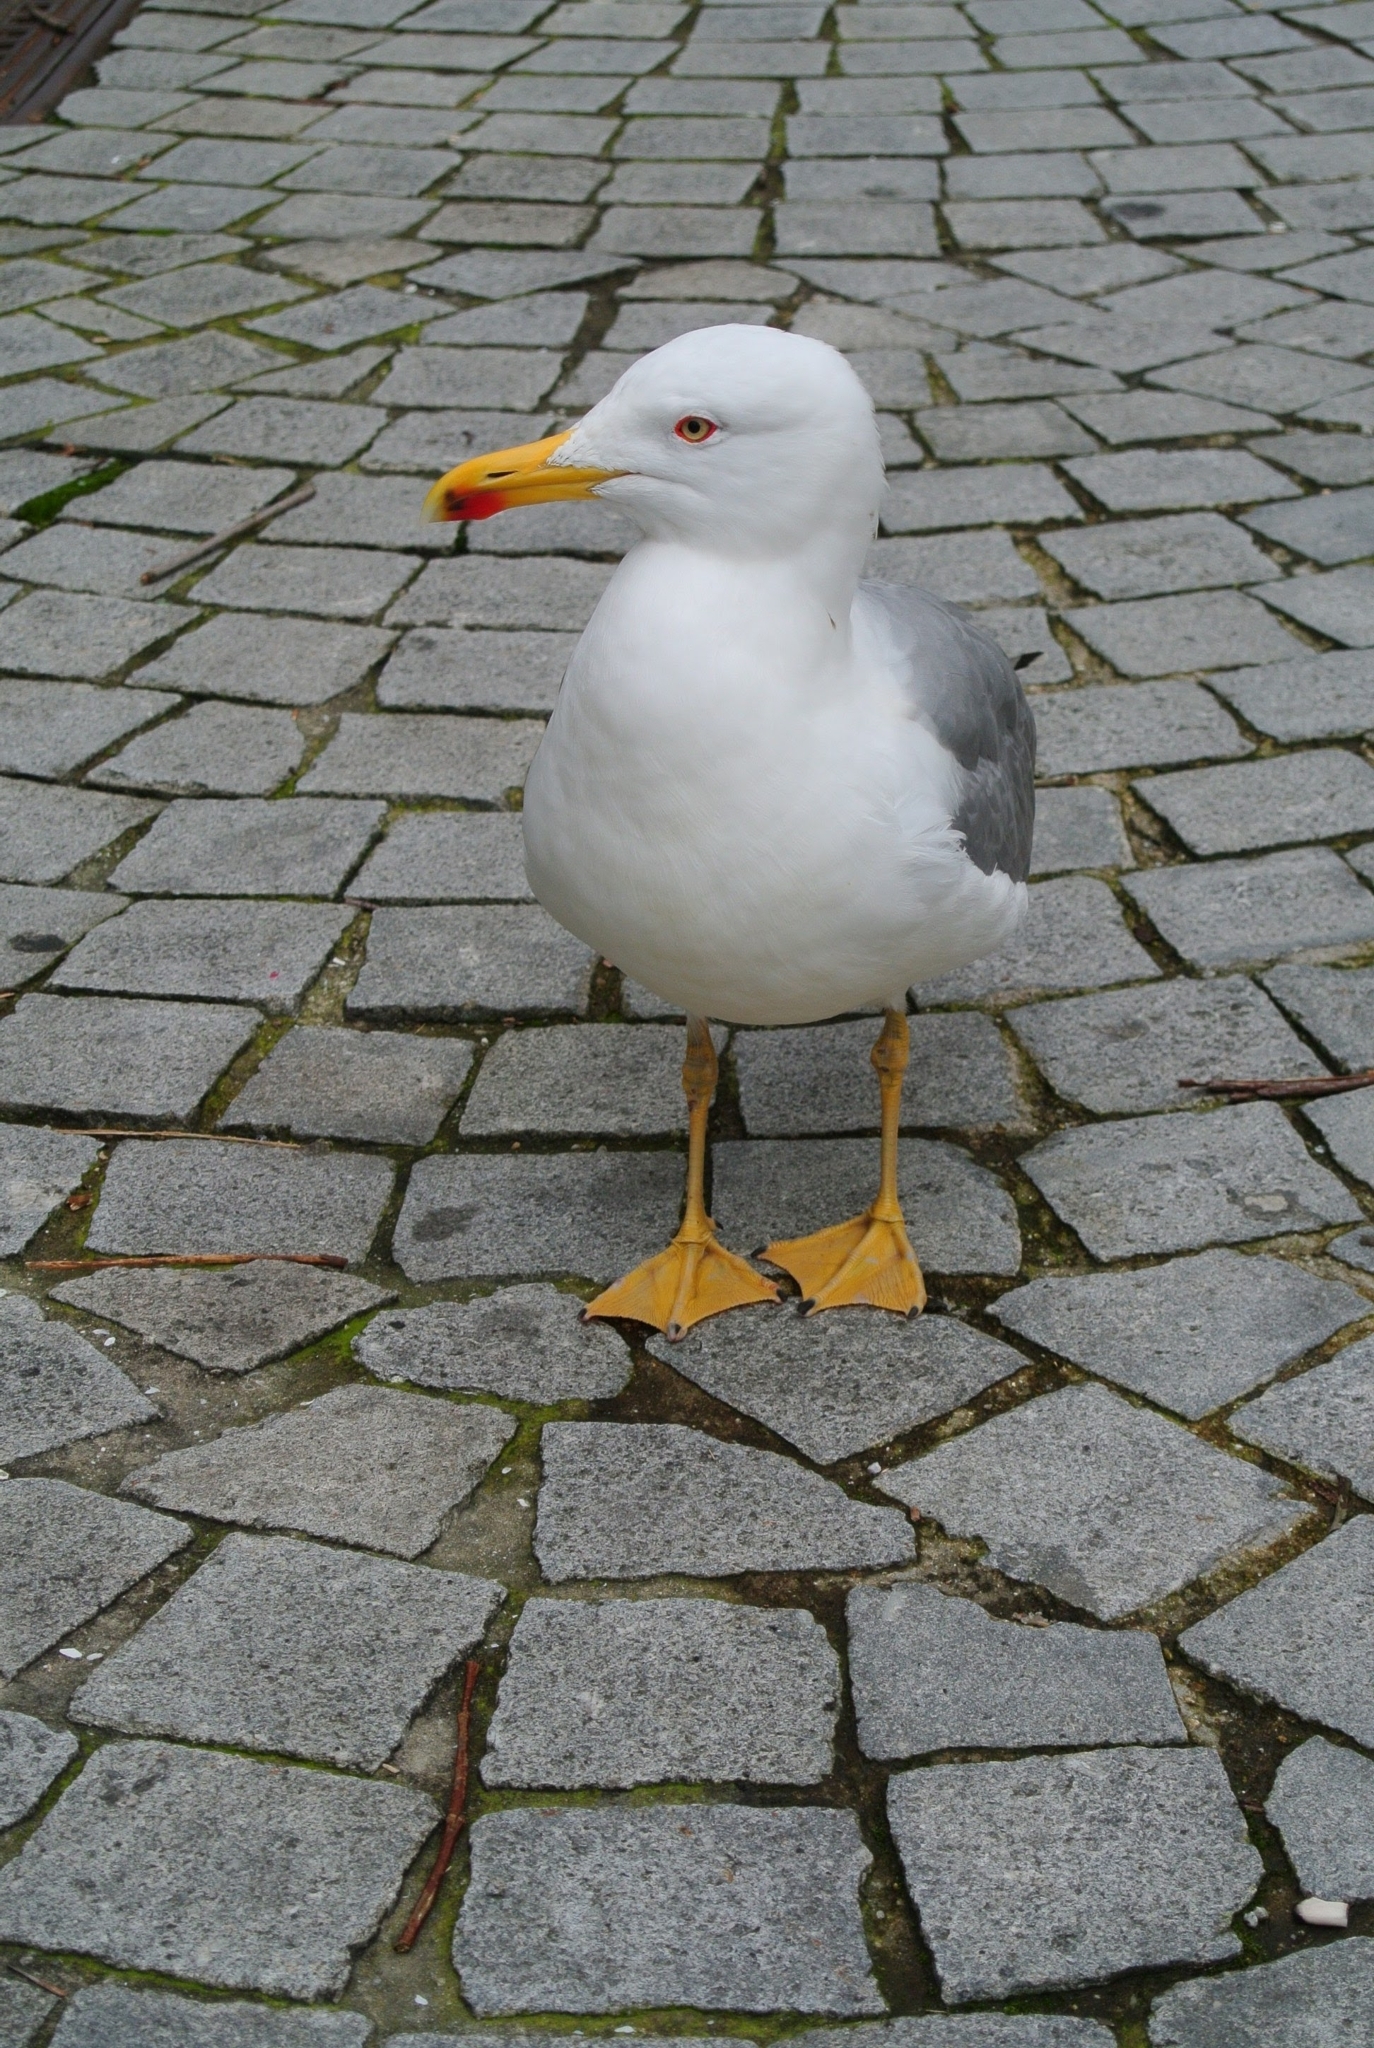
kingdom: Animalia
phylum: Chordata
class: Aves
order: Charadriiformes
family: Laridae
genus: Larus
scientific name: Larus michahellis
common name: Yellow-legged gull
